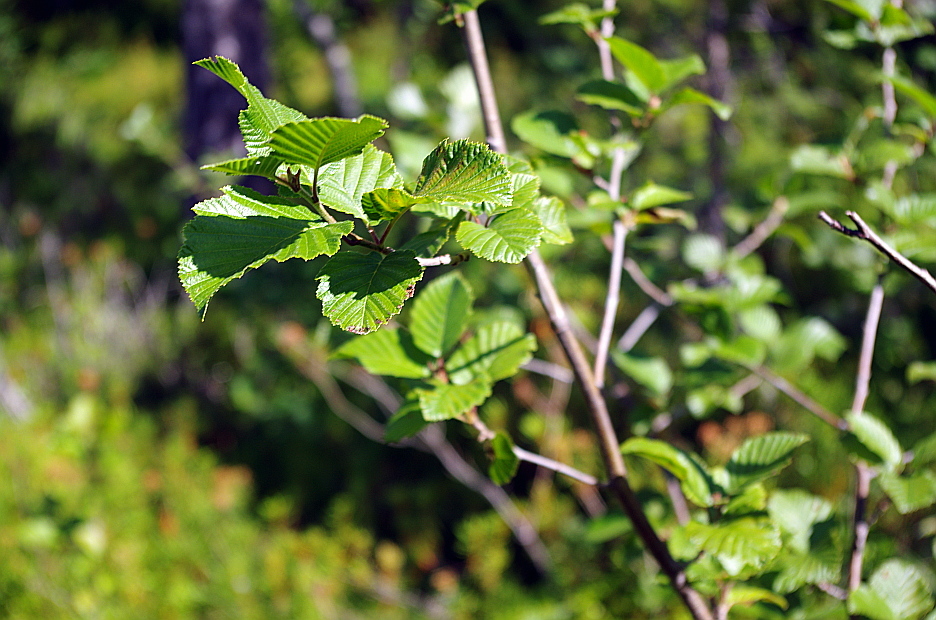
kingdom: Plantae
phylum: Tracheophyta
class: Magnoliopsida
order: Fagales
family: Betulaceae
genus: Alnus
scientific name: Alnus incana
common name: Grey alder
